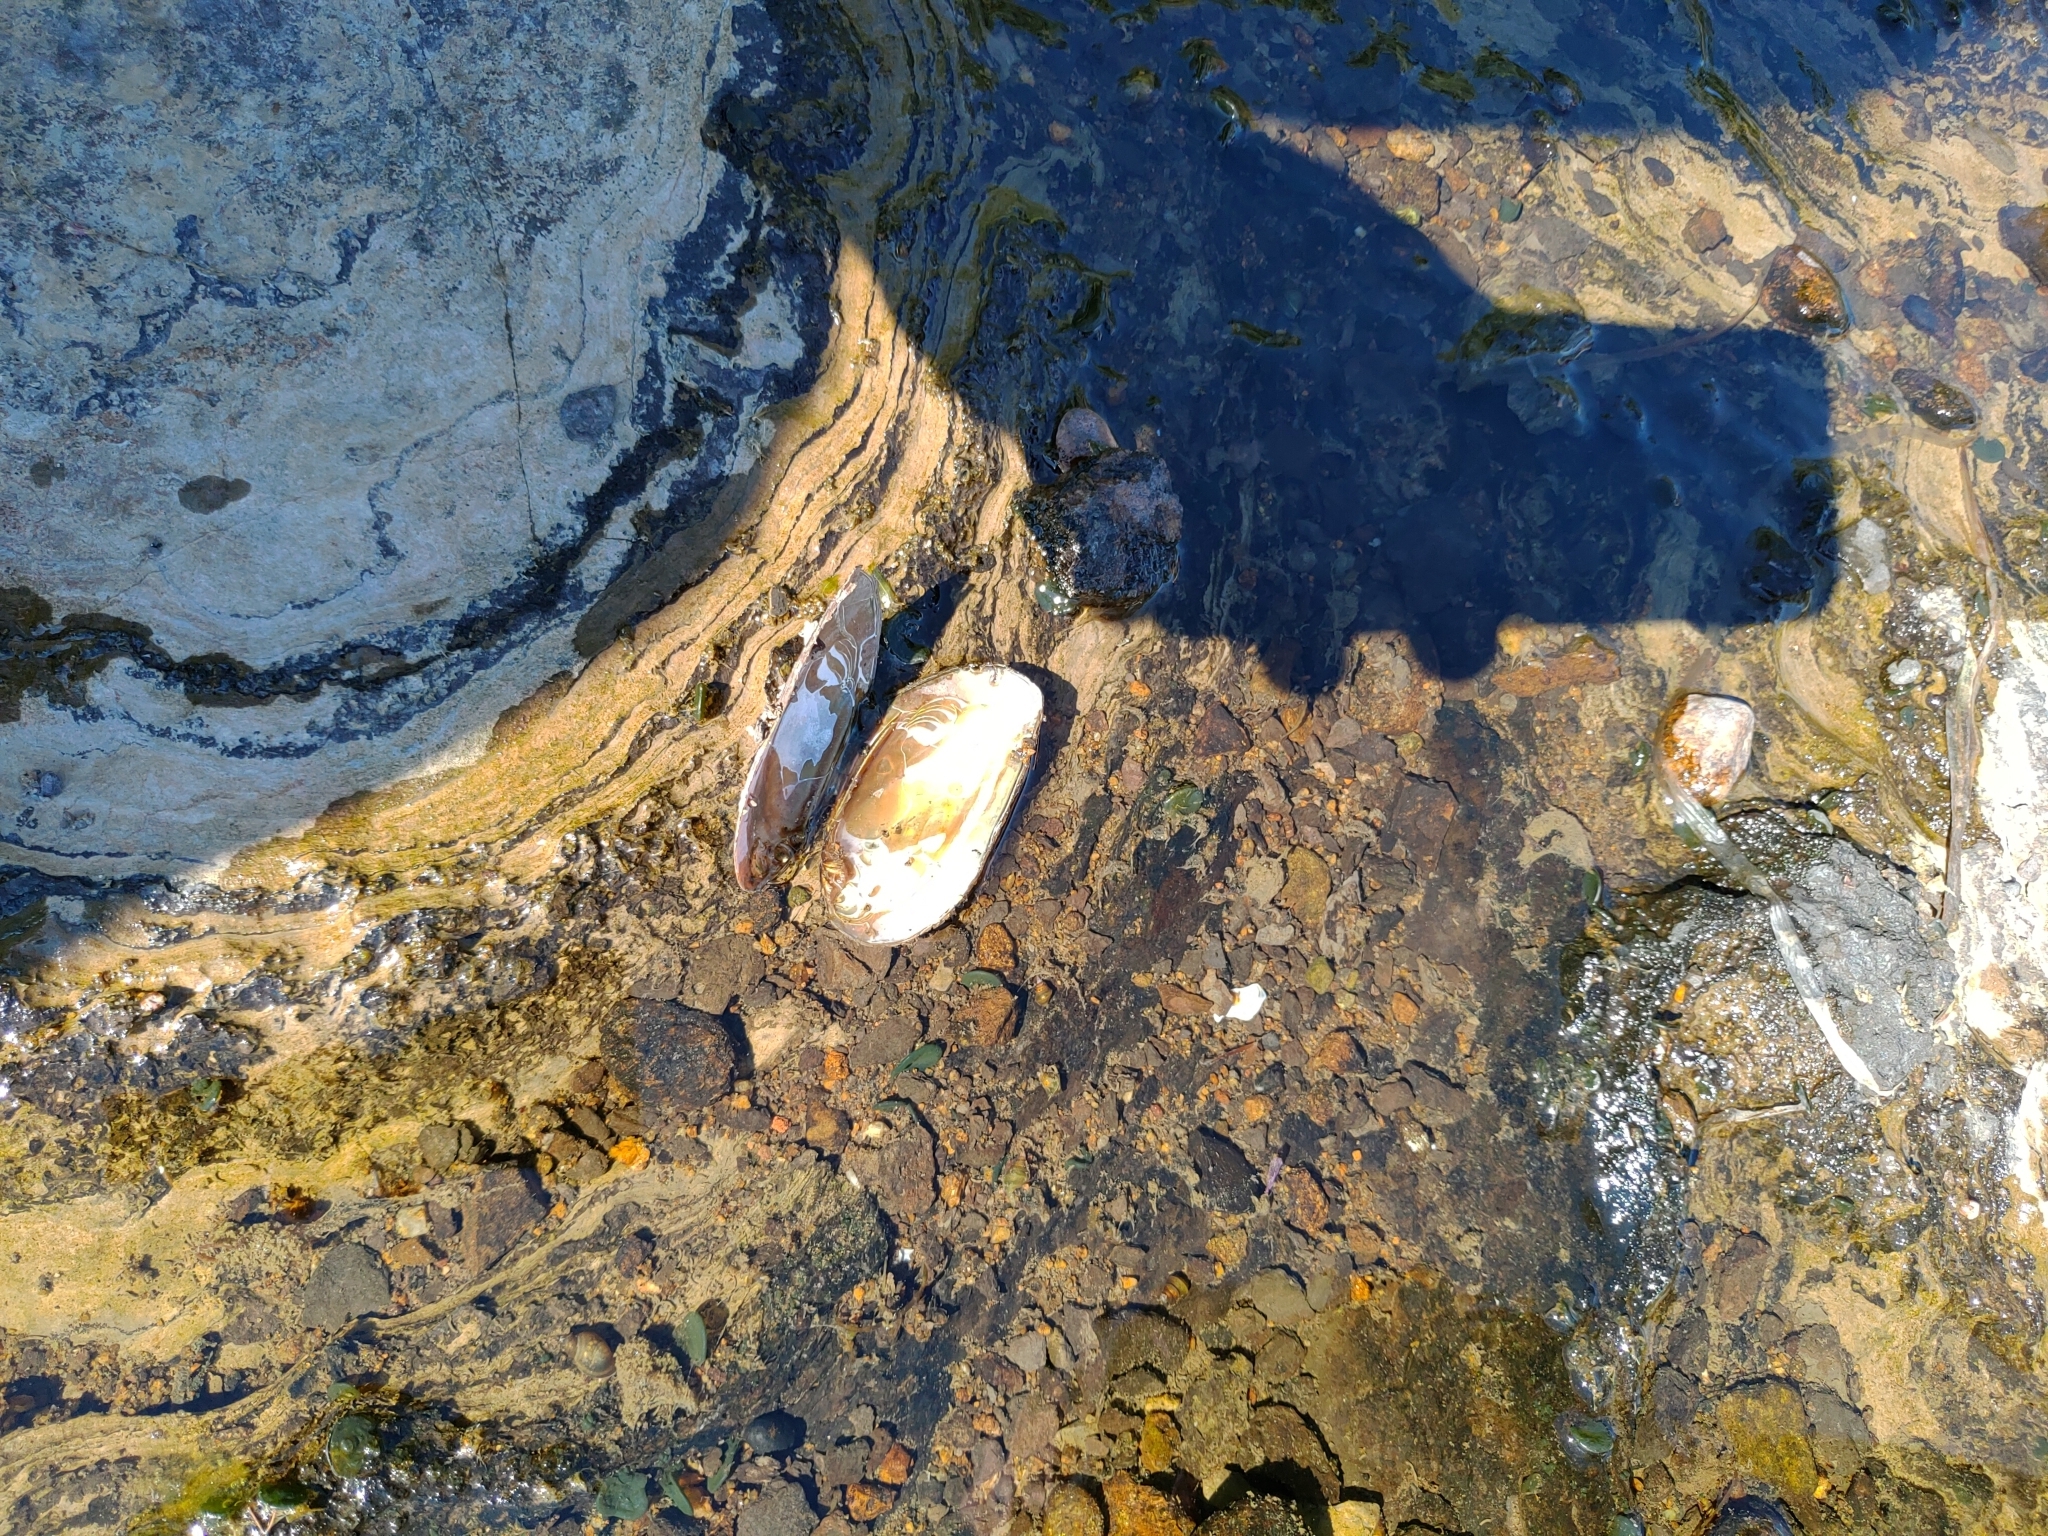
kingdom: Animalia
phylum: Mollusca
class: Bivalvia
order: Unionida
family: Unionidae
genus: Elliptio
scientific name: Elliptio complanata
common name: Eastern elliptio
